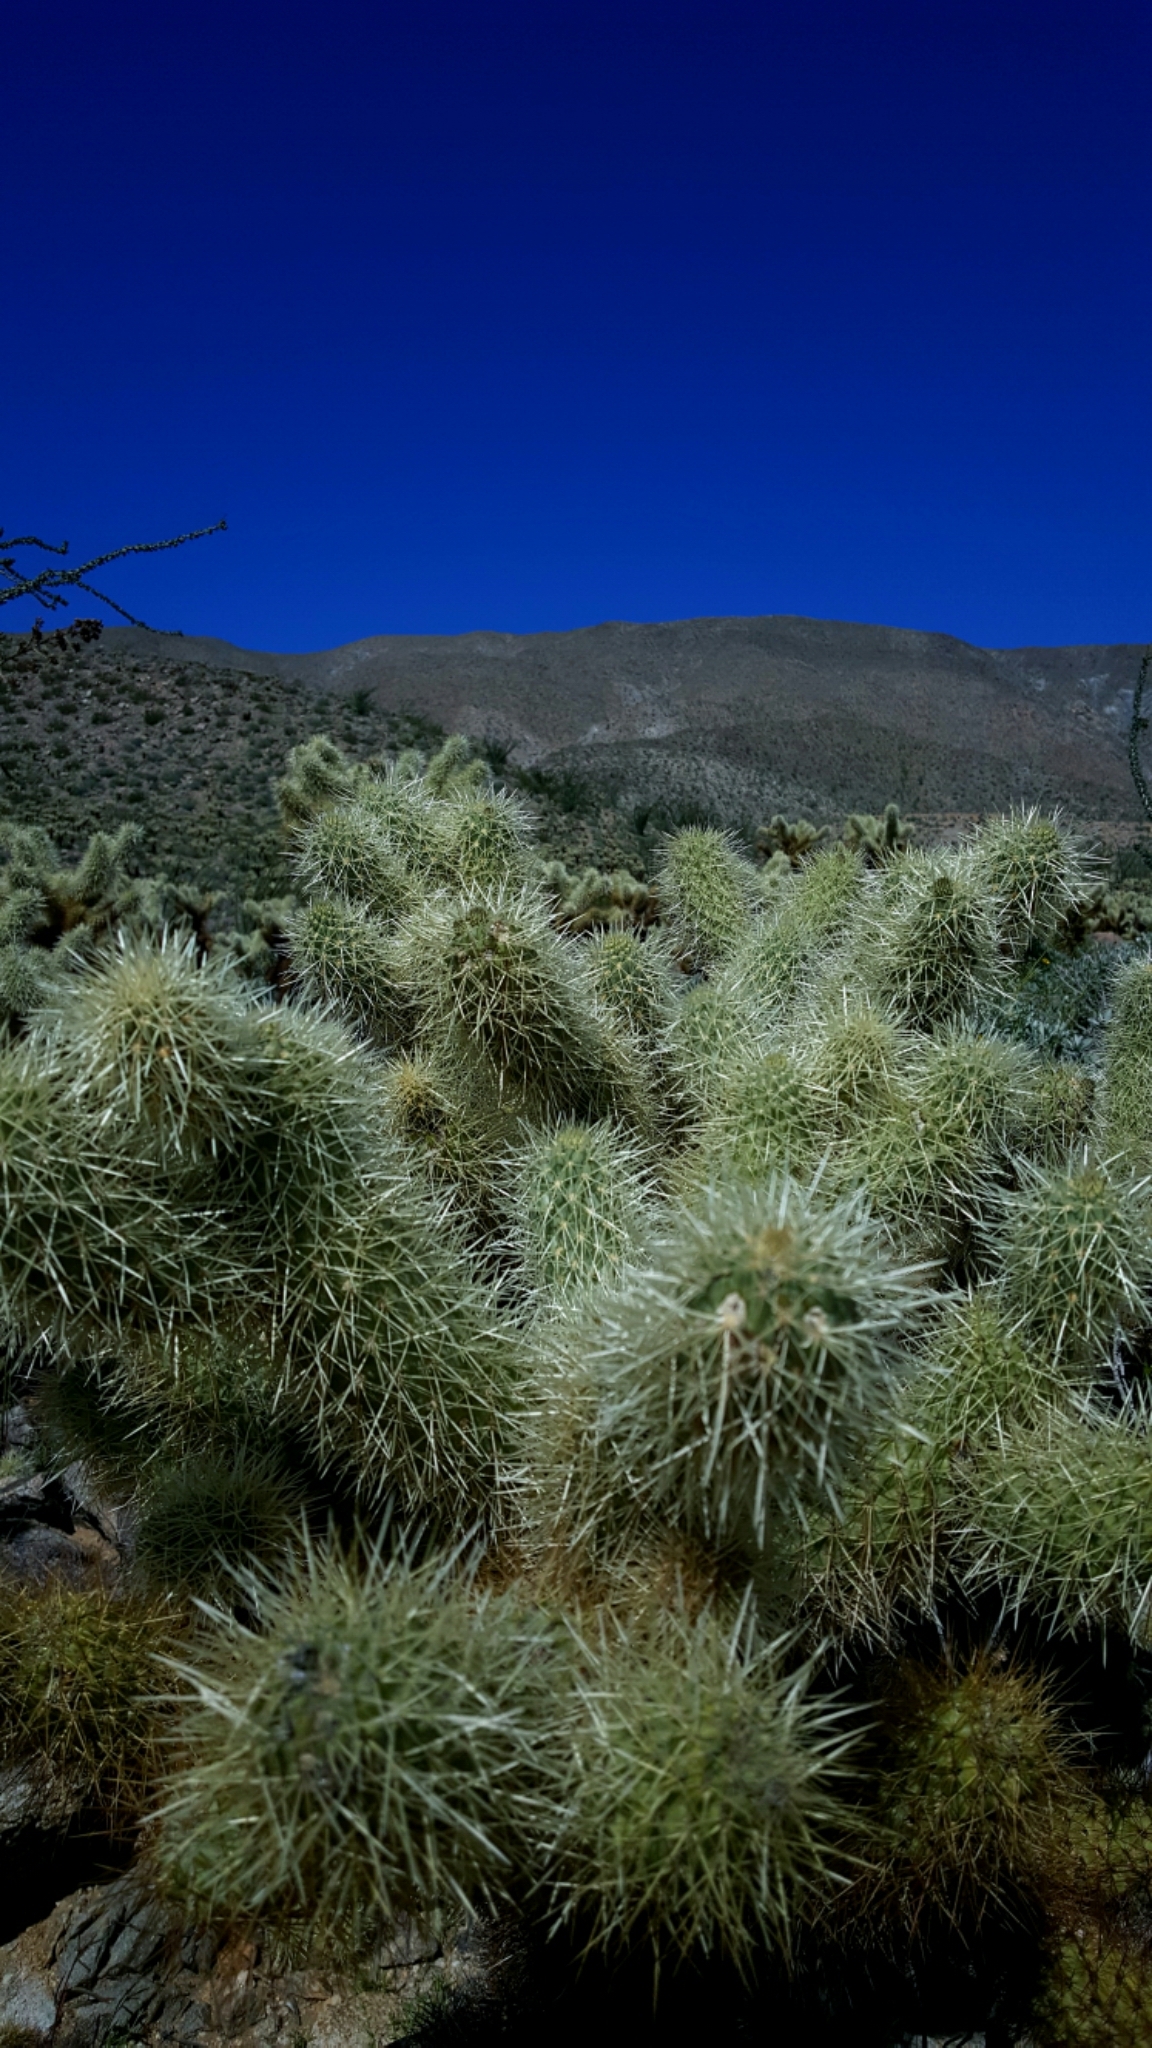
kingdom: Plantae
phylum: Tracheophyta
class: Magnoliopsida
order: Caryophyllales
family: Cactaceae
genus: Cylindropuntia
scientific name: Cylindropuntia fosbergii
